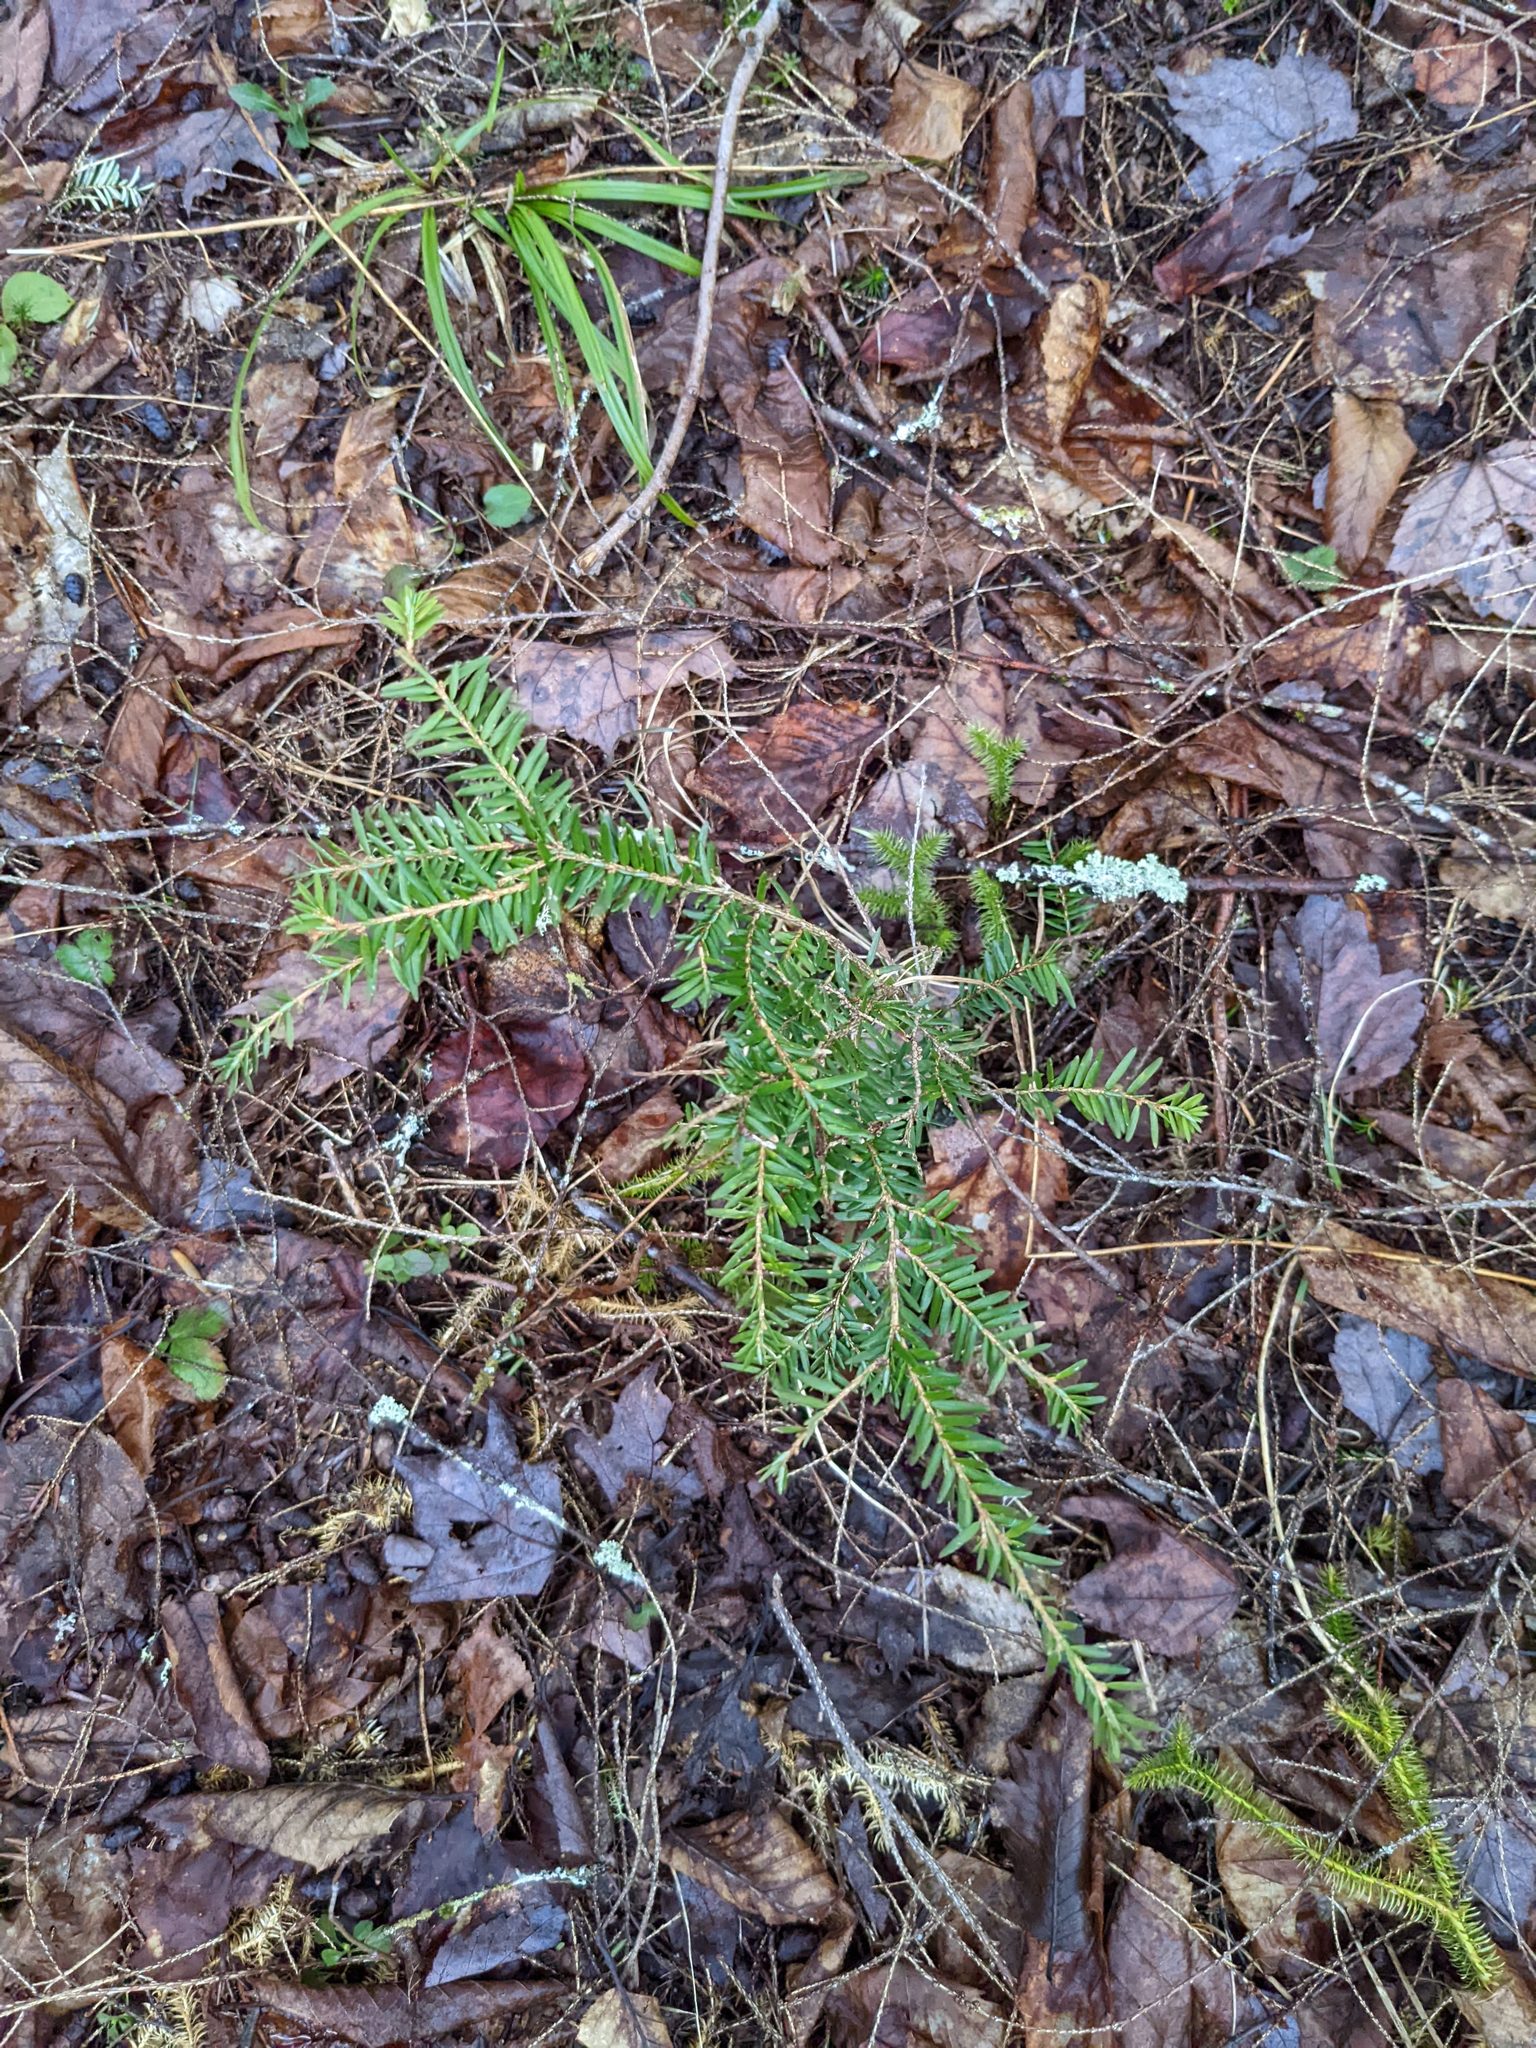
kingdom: Plantae
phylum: Tracheophyta
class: Pinopsida
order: Pinales
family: Pinaceae
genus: Tsuga
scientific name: Tsuga canadensis
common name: Eastern hemlock
